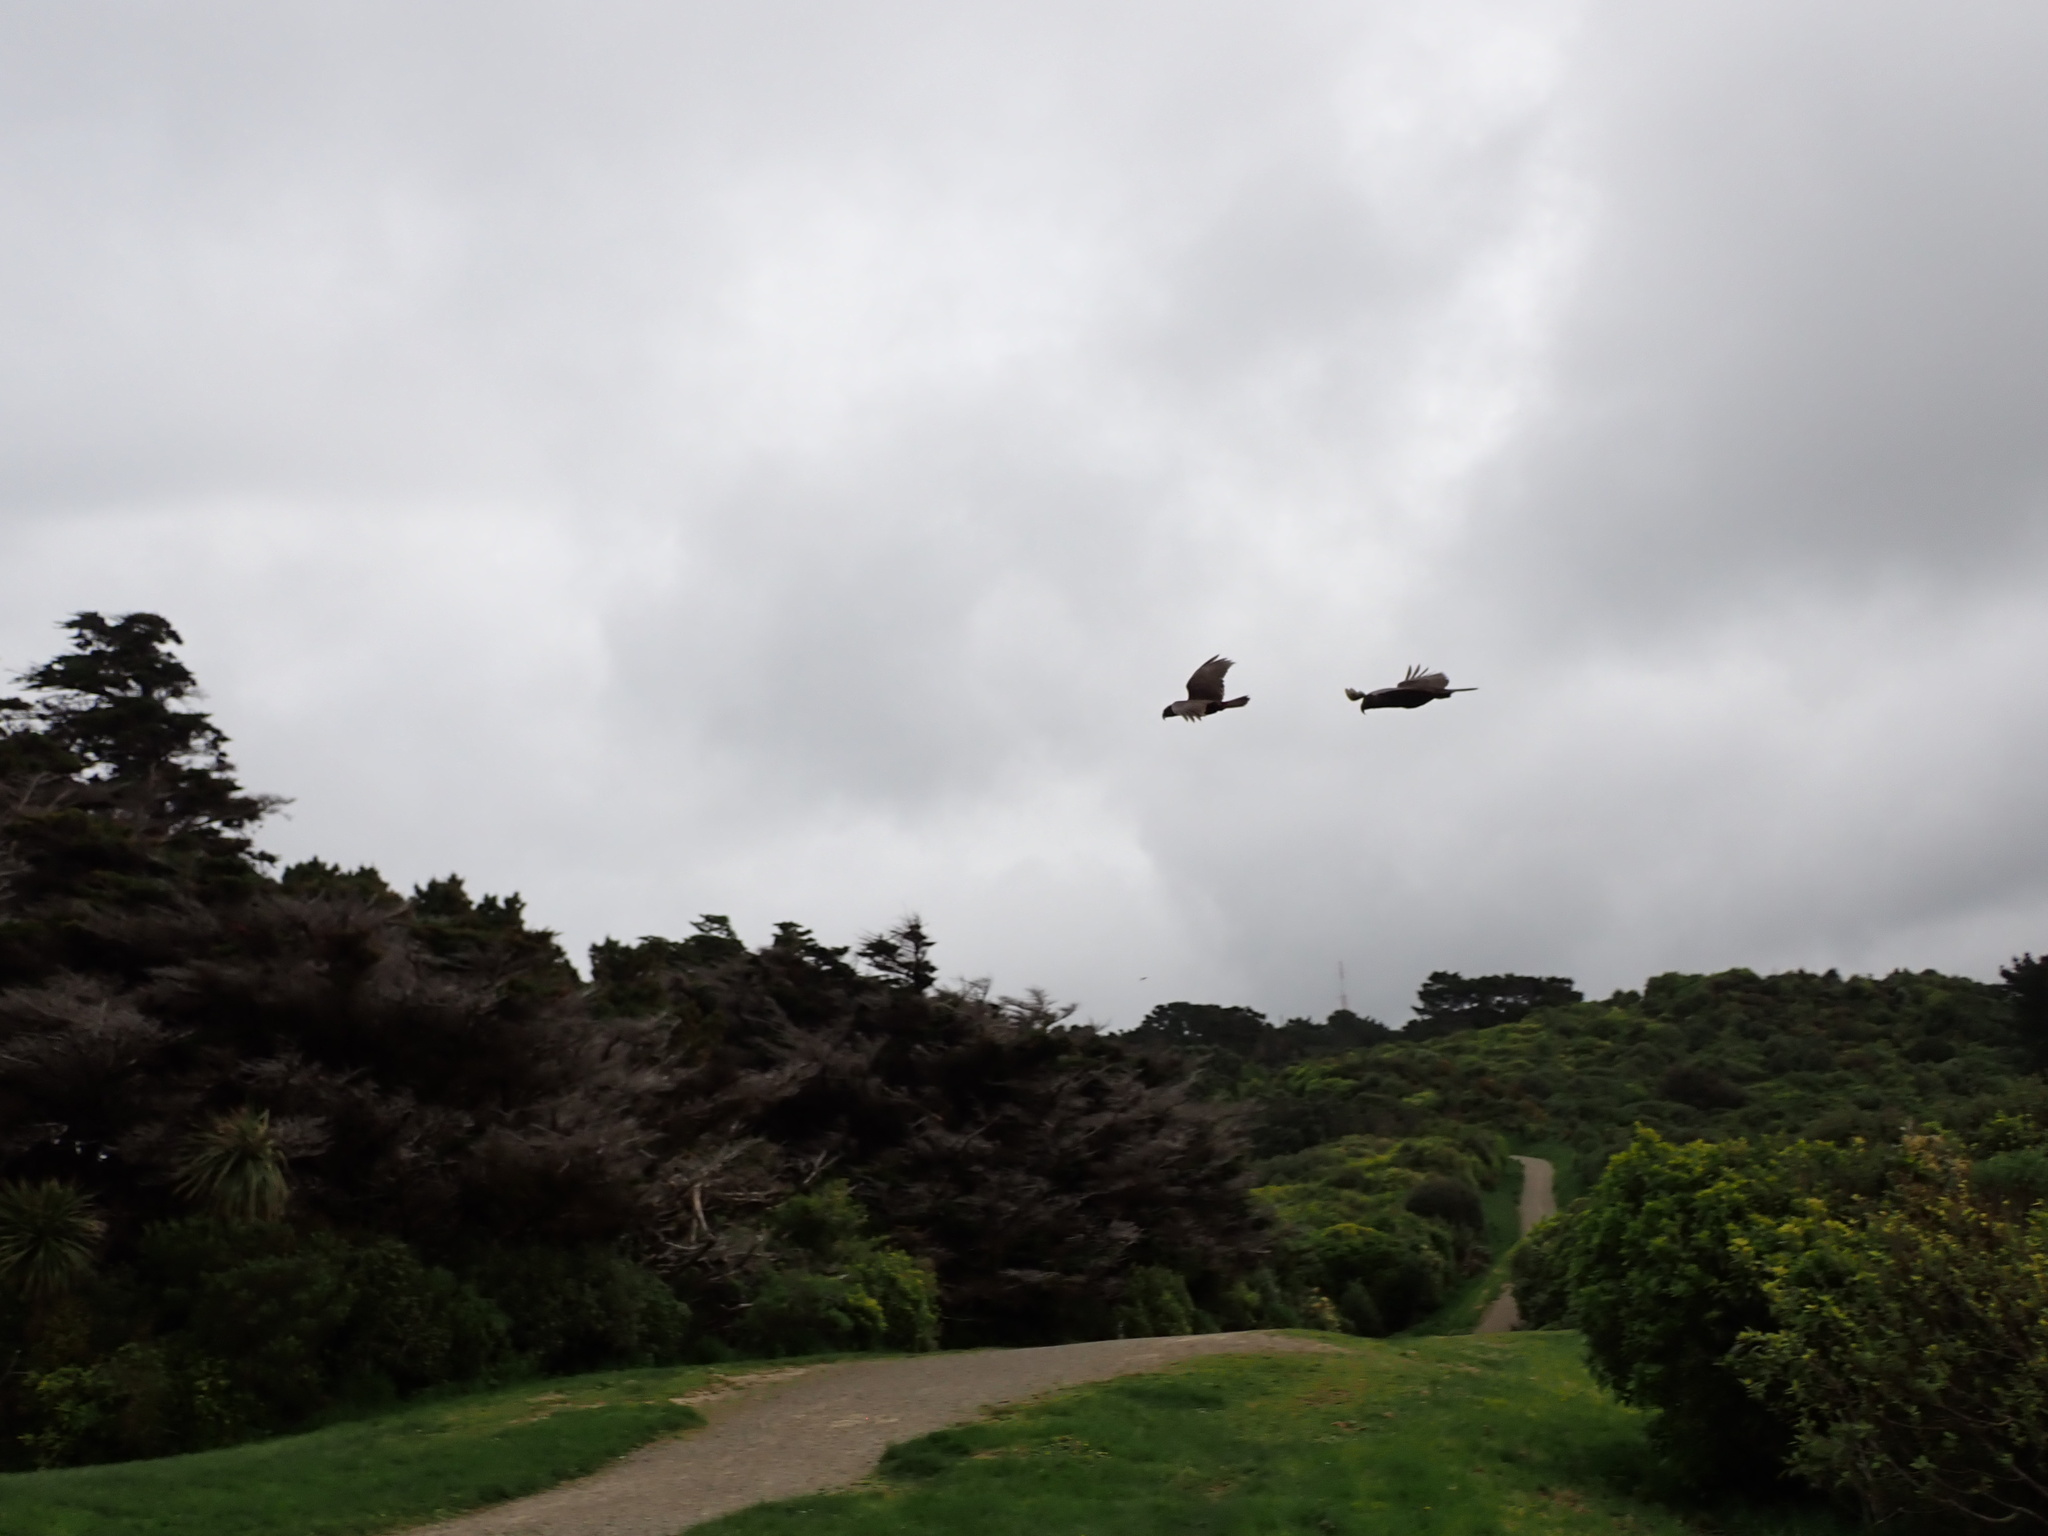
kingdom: Animalia
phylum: Chordata
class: Aves
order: Psittaciformes
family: Psittacidae
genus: Nestor
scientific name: Nestor meridionalis
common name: New zealand kaka
